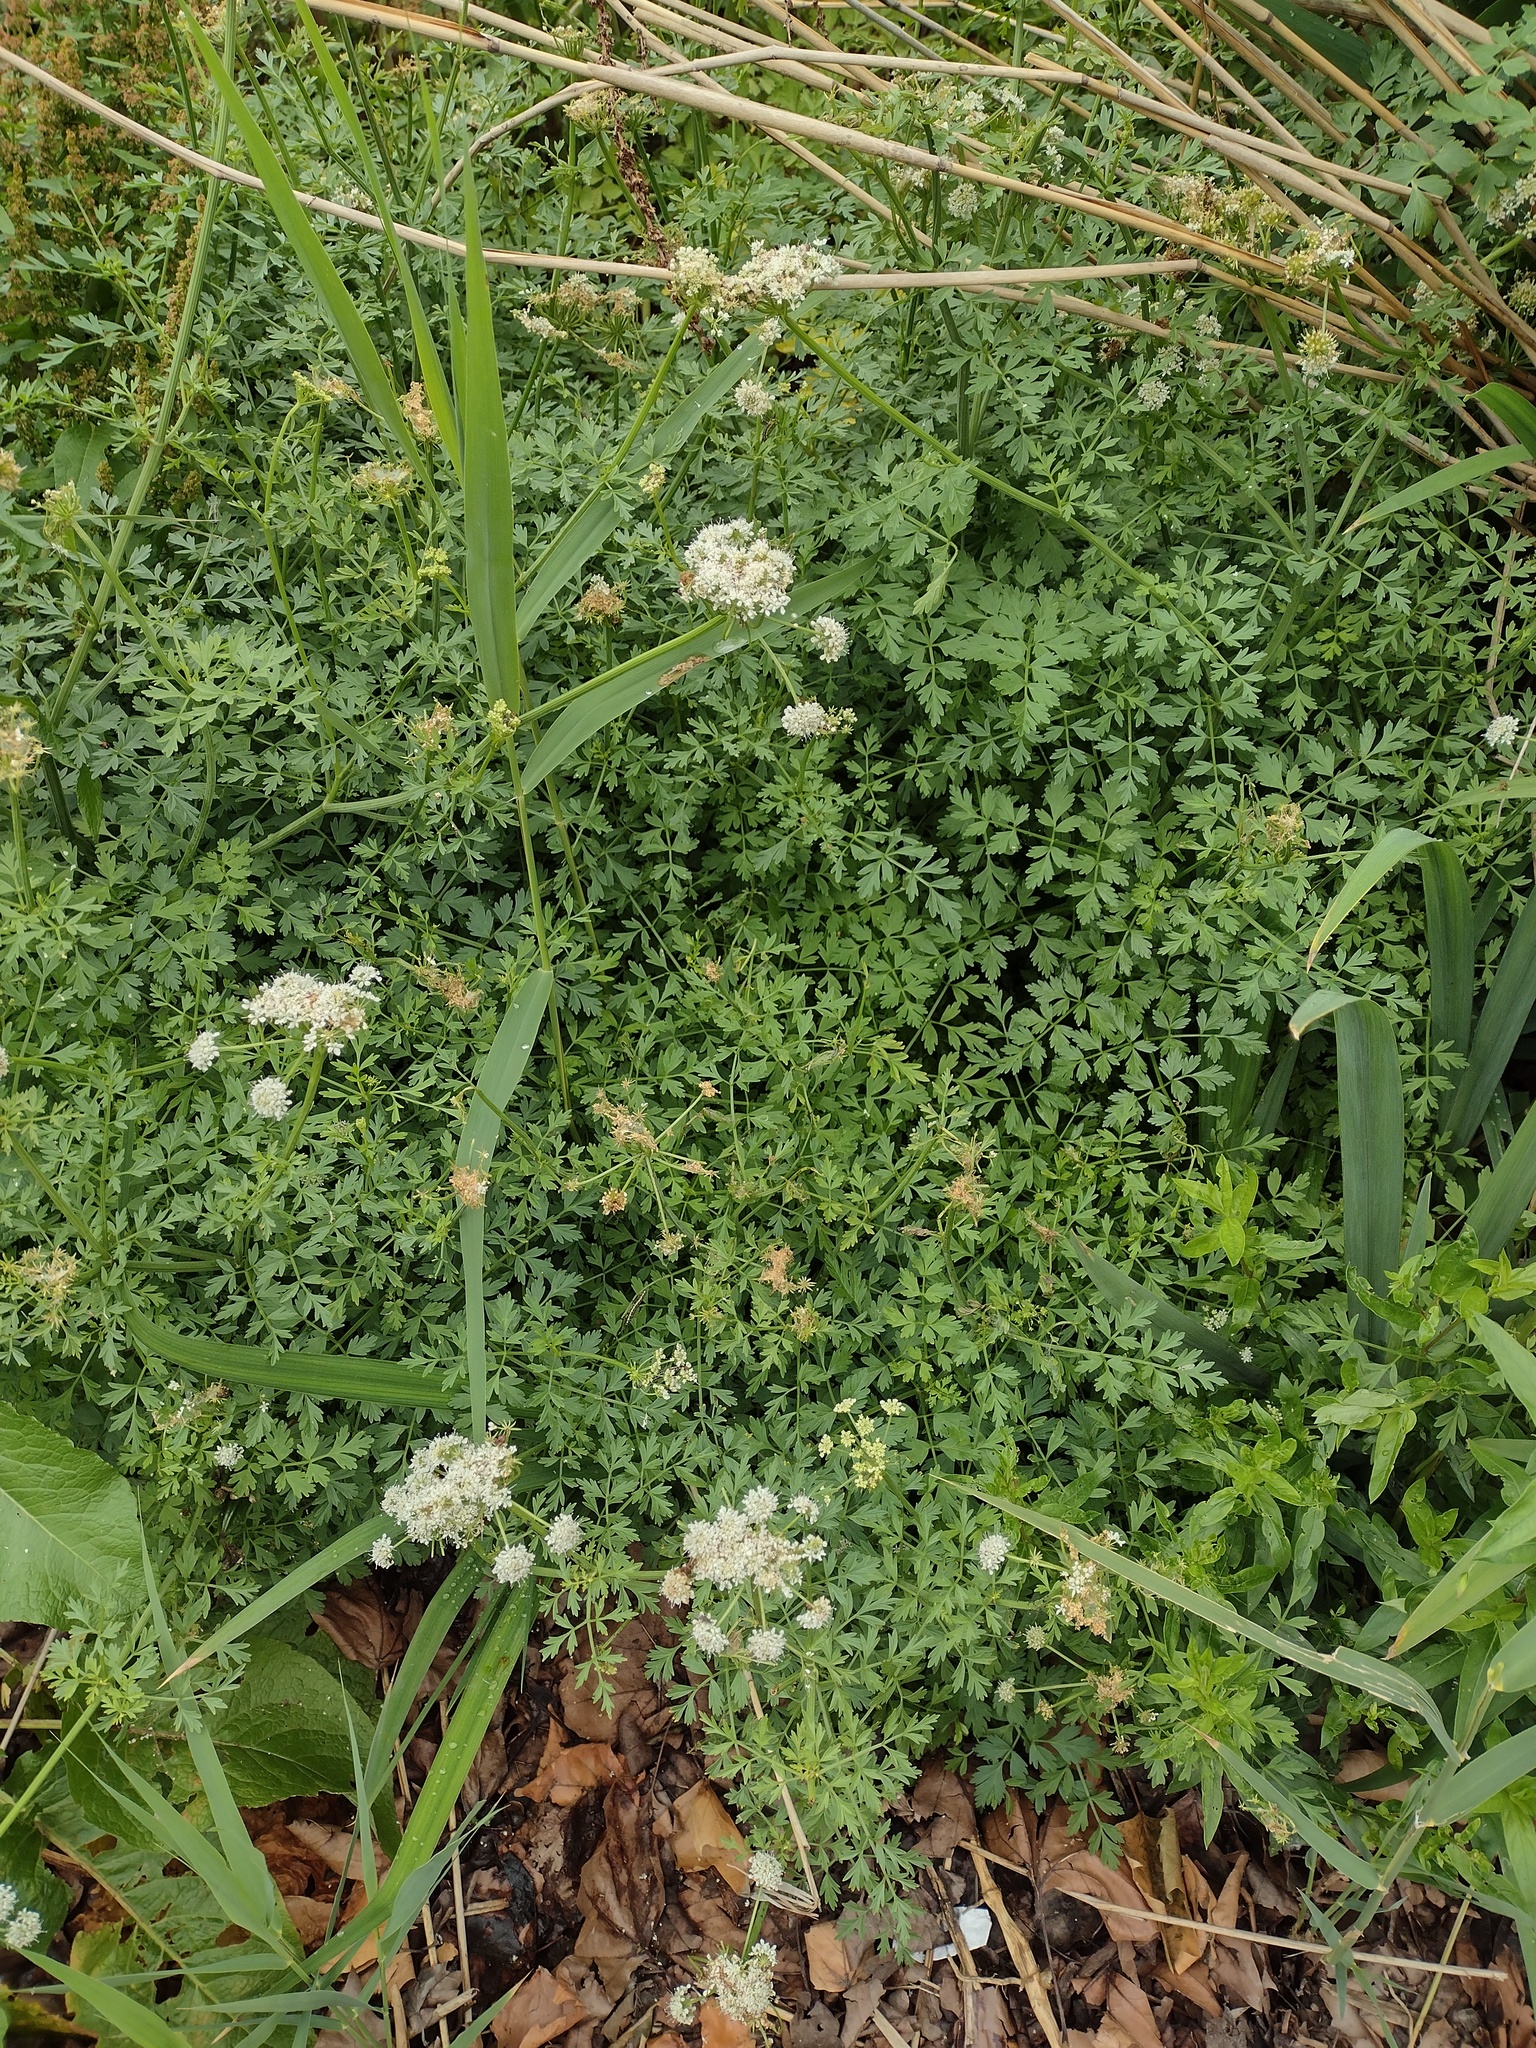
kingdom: Plantae
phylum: Tracheophyta
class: Magnoliopsida
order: Apiales
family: Apiaceae
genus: Oenanthe
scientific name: Oenanthe crocata
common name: Hemlock water-dropwort
